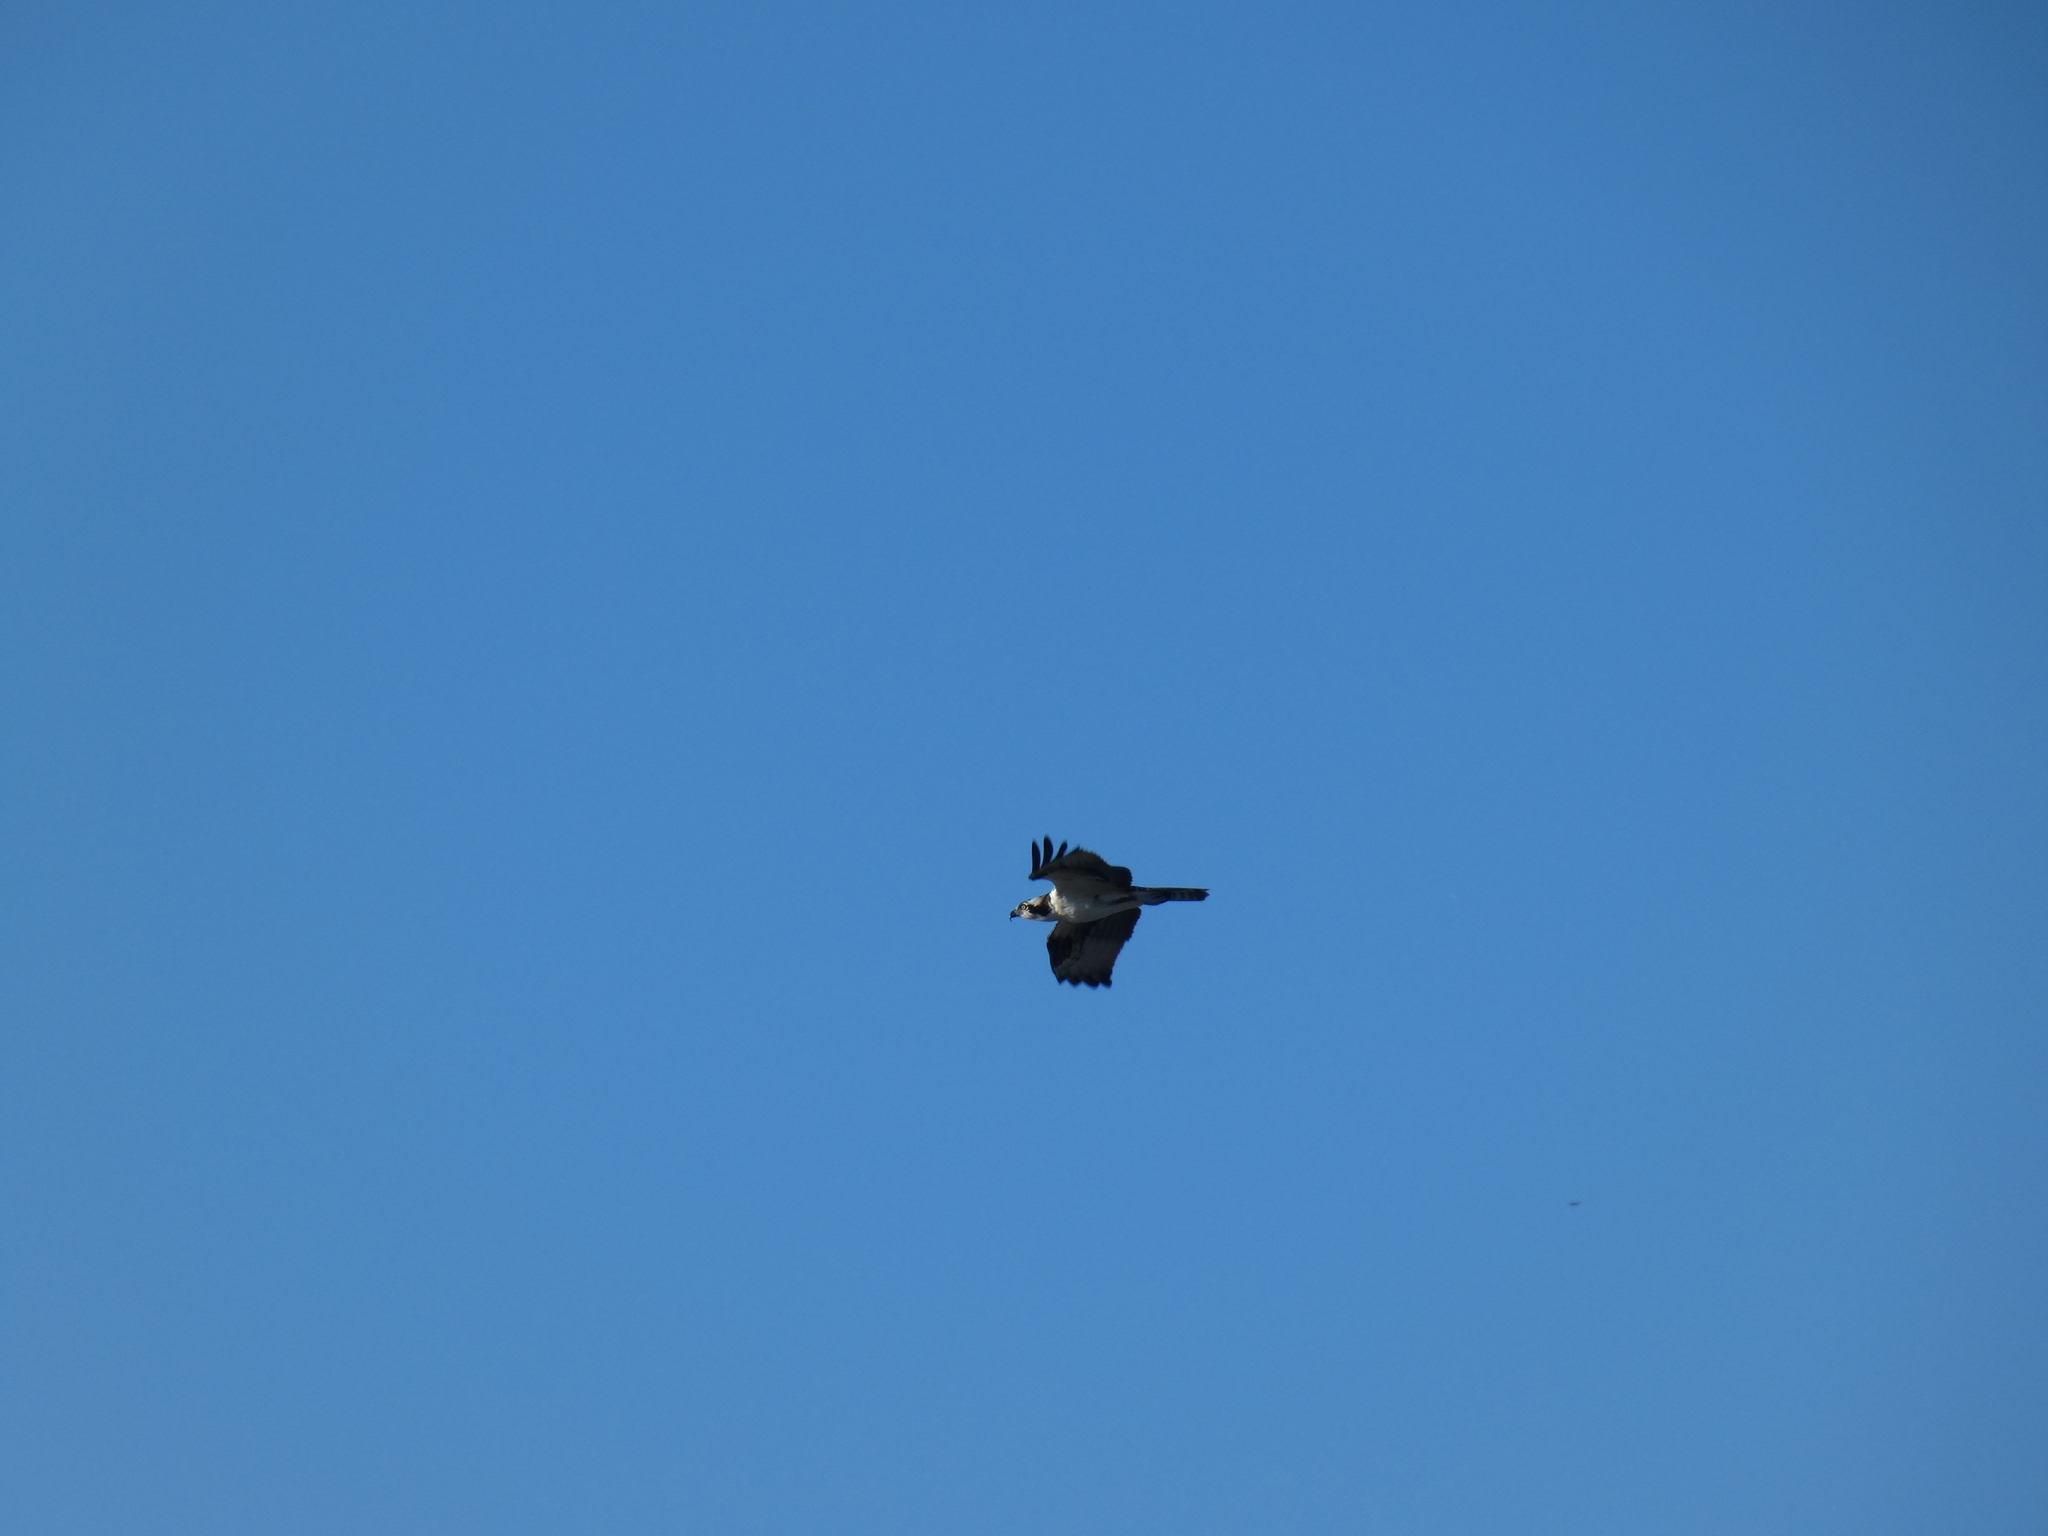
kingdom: Animalia
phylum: Chordata
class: Aves
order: Accipitriformes
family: Pandionidae
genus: Pandion
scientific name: Pandion haliaetus
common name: Osprey
